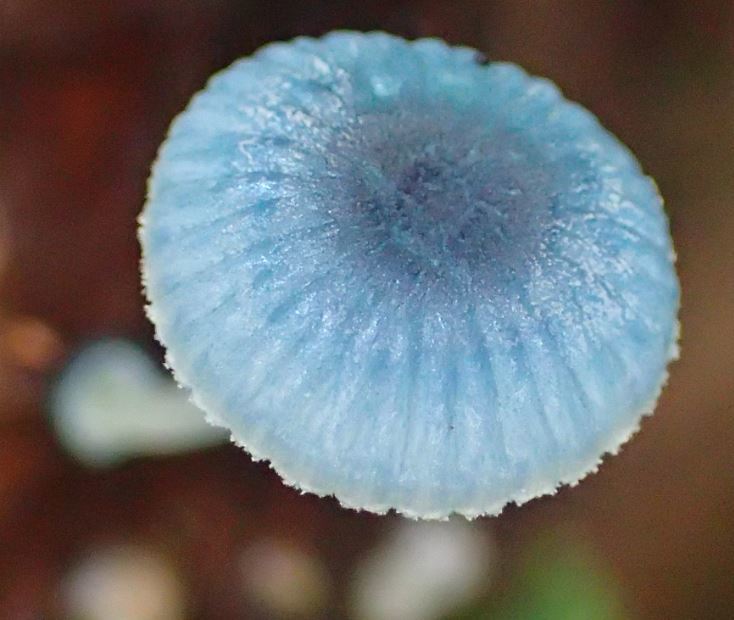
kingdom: Fungi
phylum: Basidiomycota
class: Agaricomycetes
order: Agaricales
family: Mycenaceae
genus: Mycena
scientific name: Mycena interrupta
